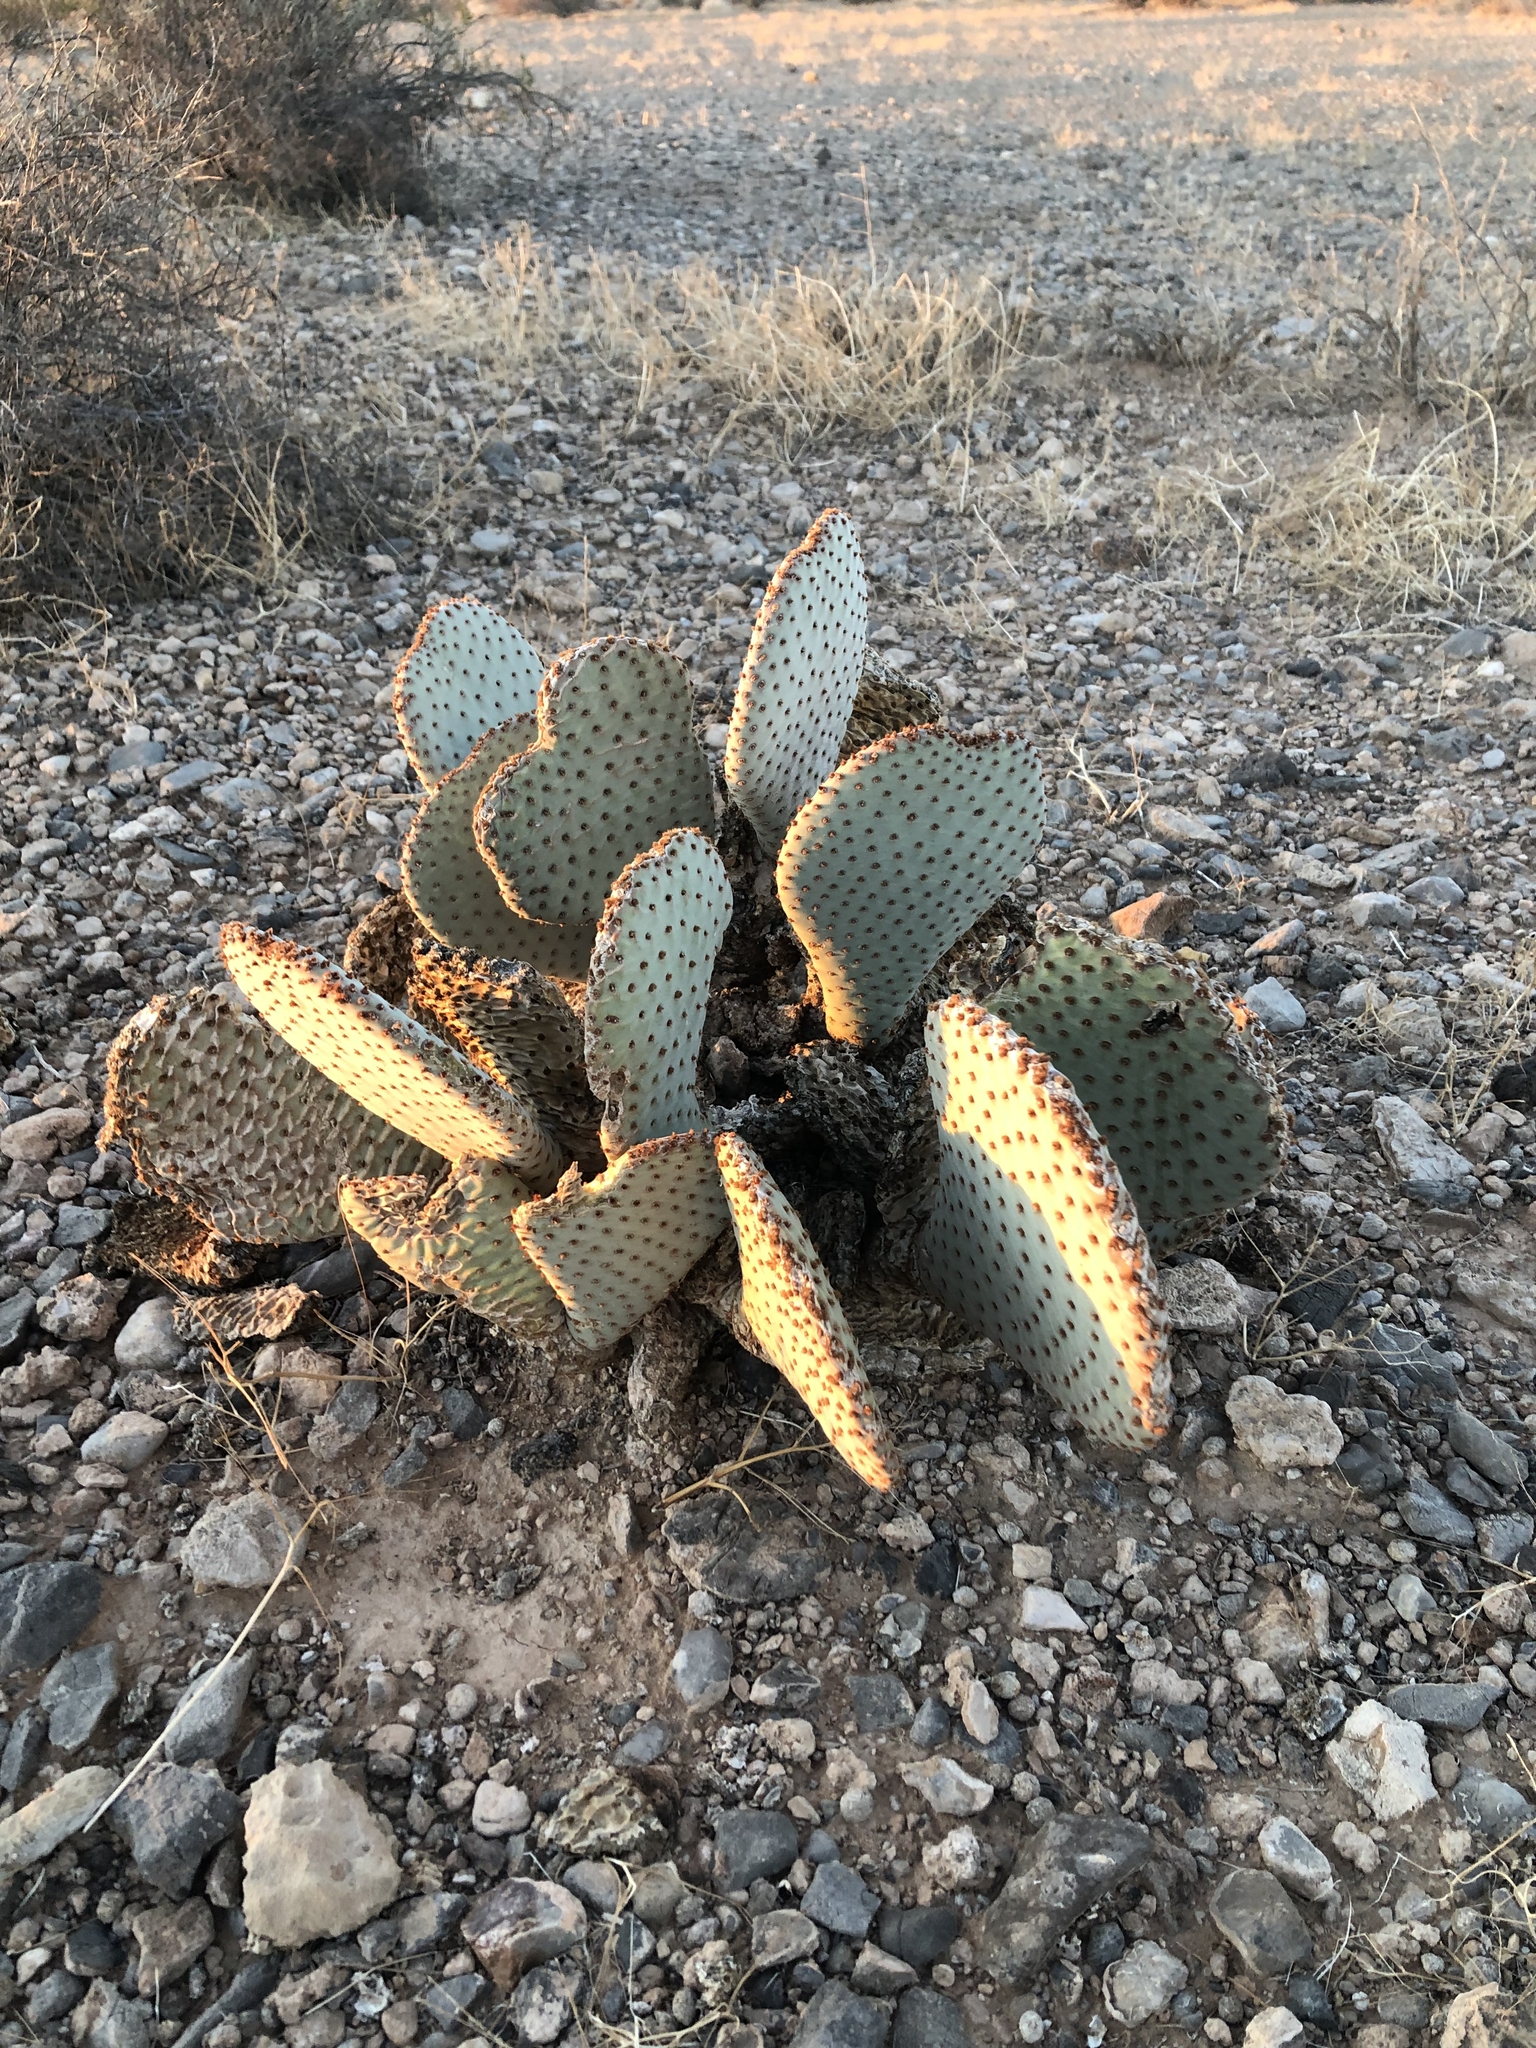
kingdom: Plantae
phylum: Tracheophyta
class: Magnoliopsida
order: Caryophyllales
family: Cactaceae
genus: Opuntia
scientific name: Opuntia basilaris
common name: Beavertail prickly-pear
